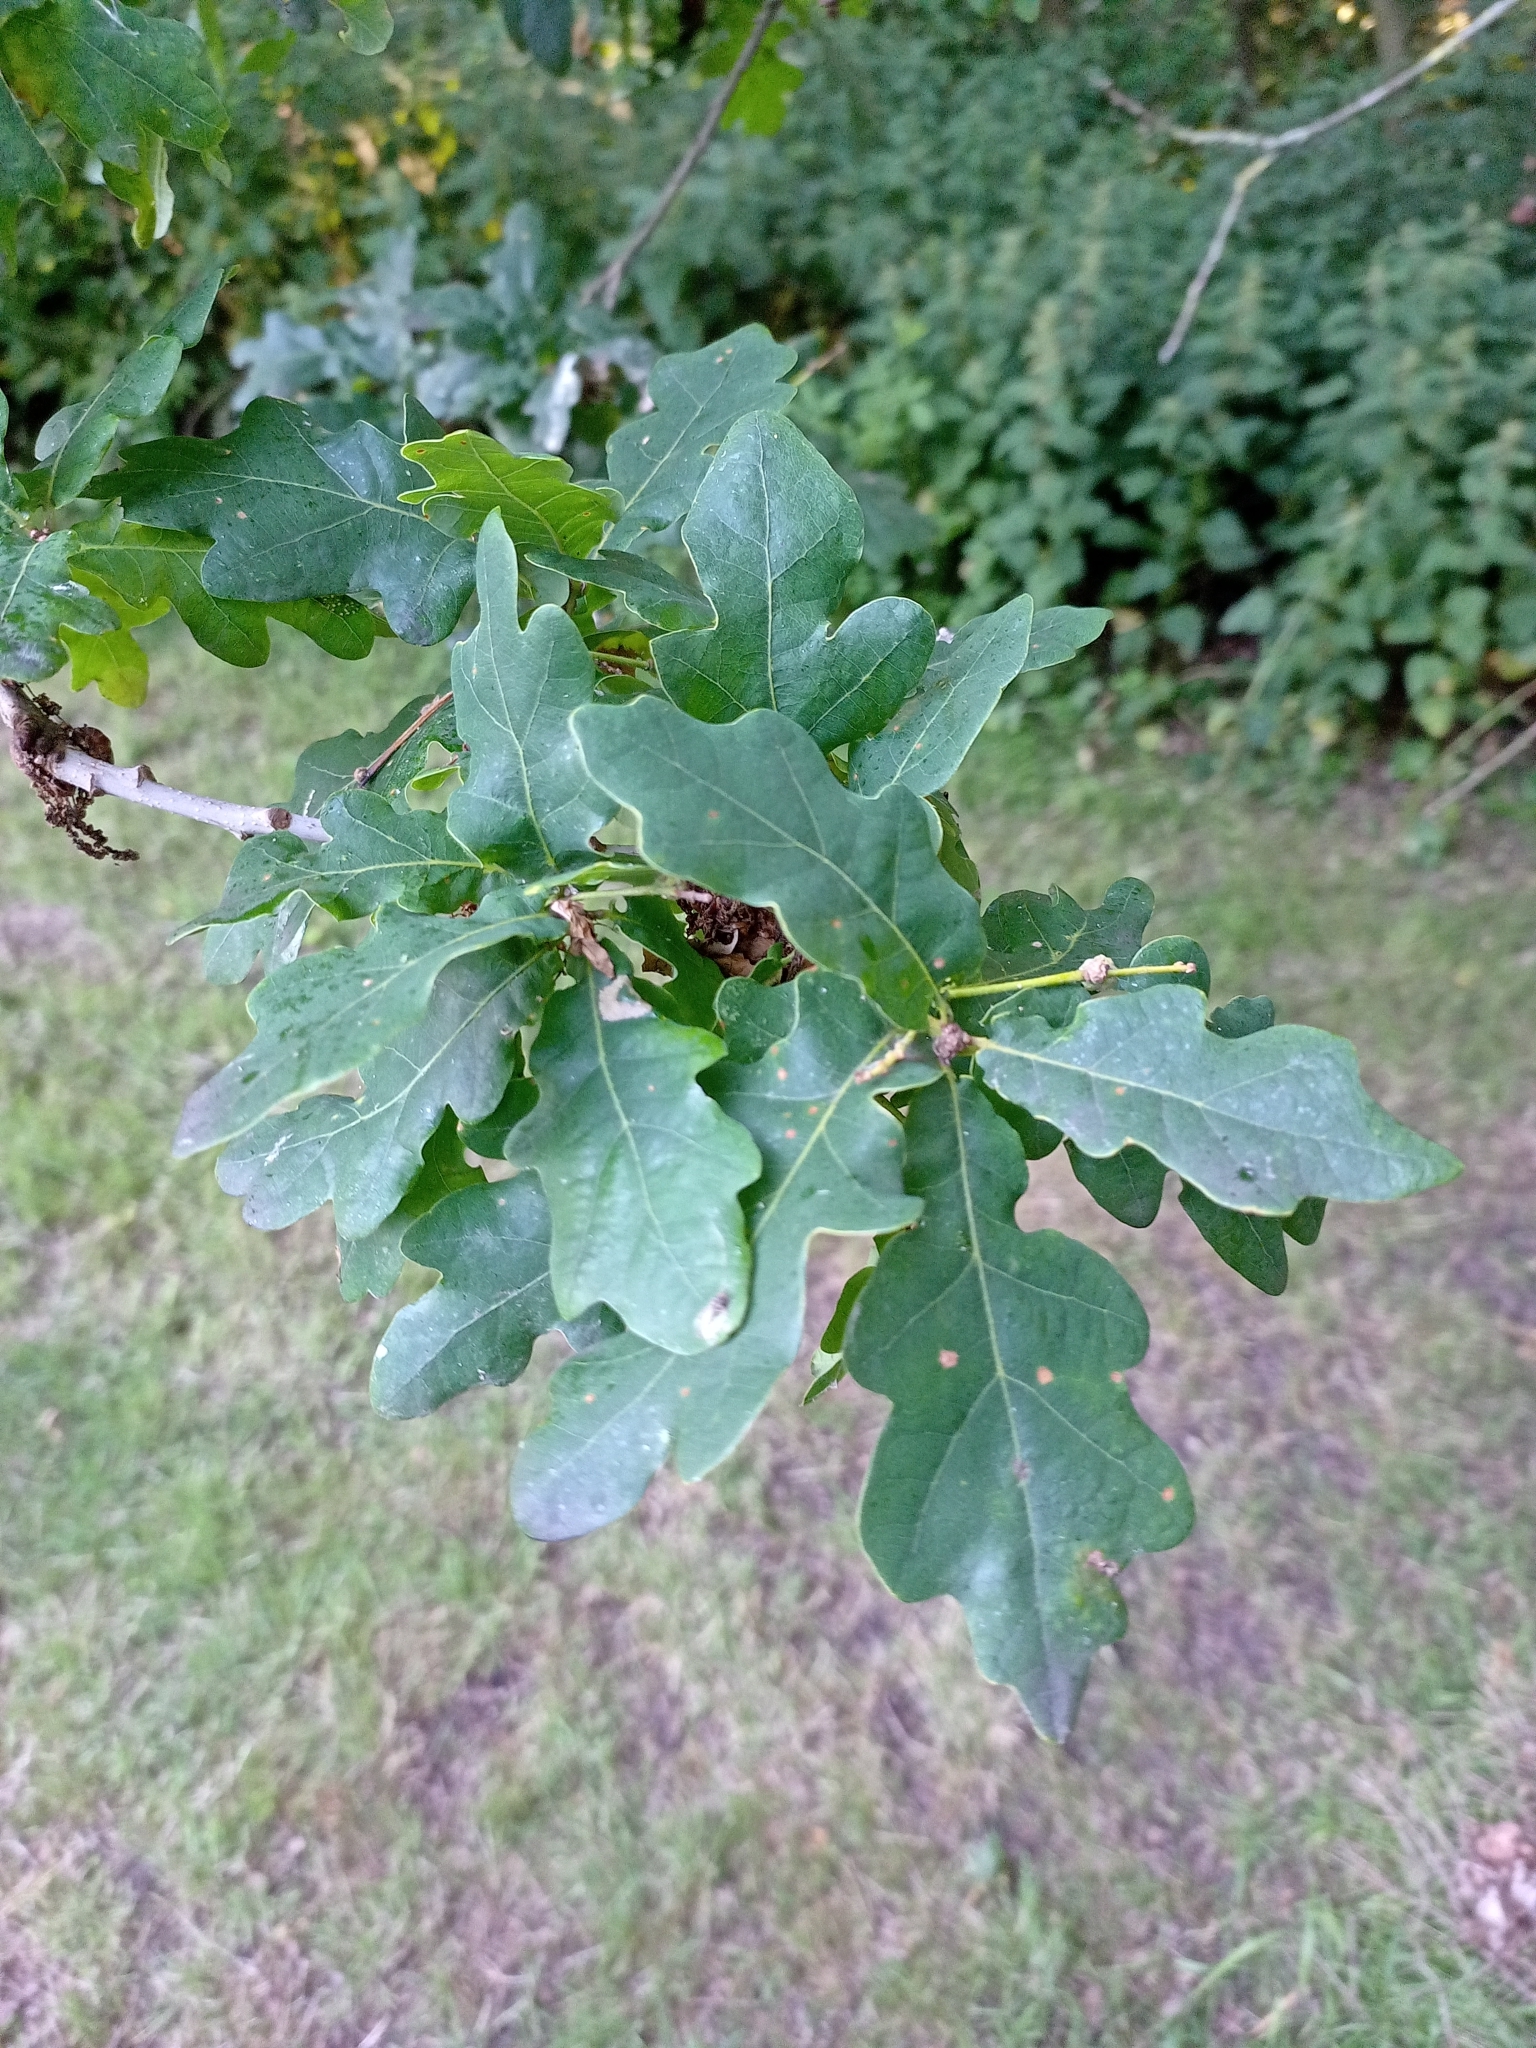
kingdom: Plantae
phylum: Tracheophyta
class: Magnoliopsida
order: Fagales
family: Fagaceae
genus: Quercus
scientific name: Quercus robur
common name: Pedunculate oak
